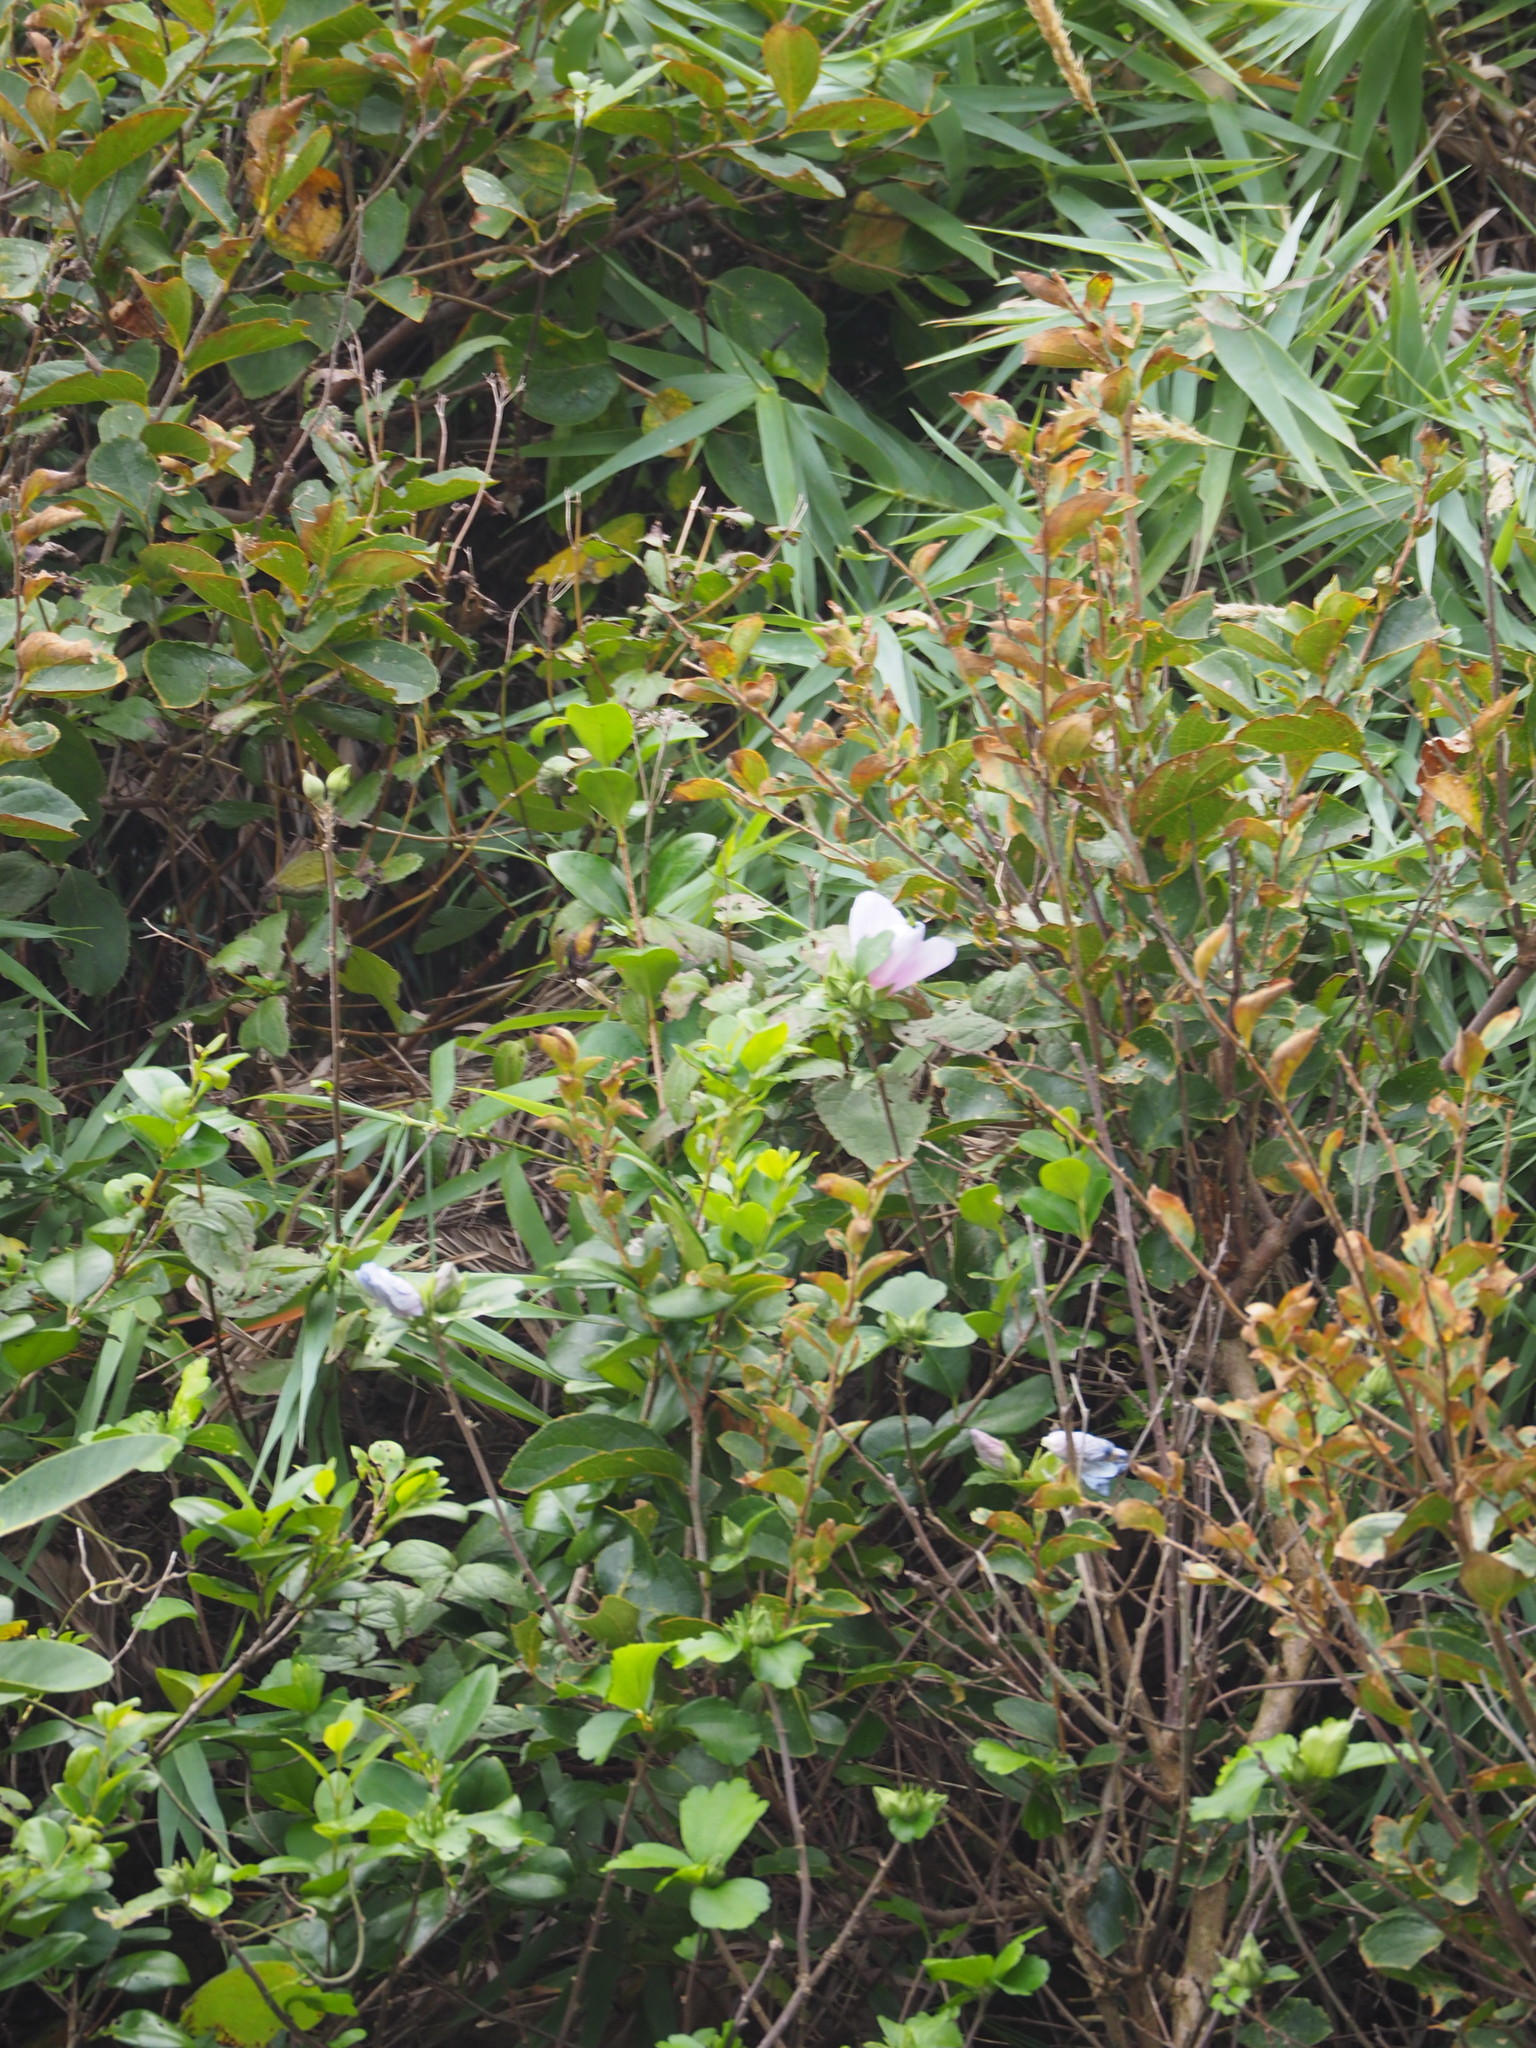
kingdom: Plantae
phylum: Tracheophyta
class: Magnoliopsida
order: Malvales
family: Malvaceae
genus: Hibiscus
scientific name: Hibiscus syriacus
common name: Syrian ketmia
